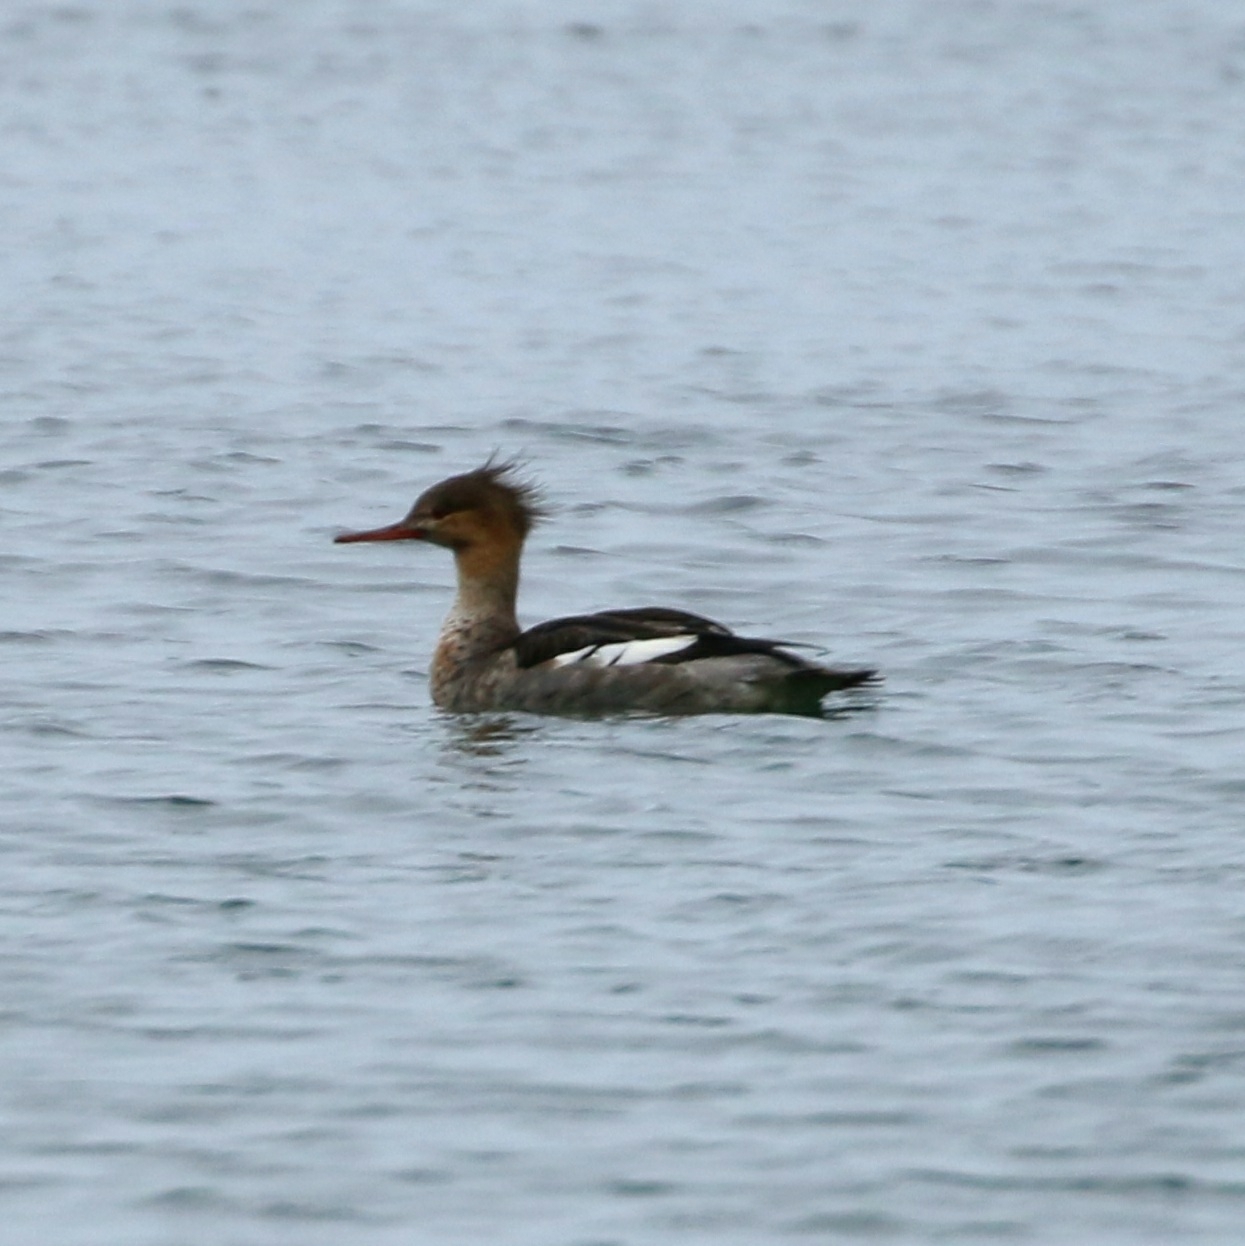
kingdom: Animalia
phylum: Chordata
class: Aves
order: Anseriformes
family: Anatidae
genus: Mergus
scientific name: Mergus serrator
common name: Red-breasted merganser
